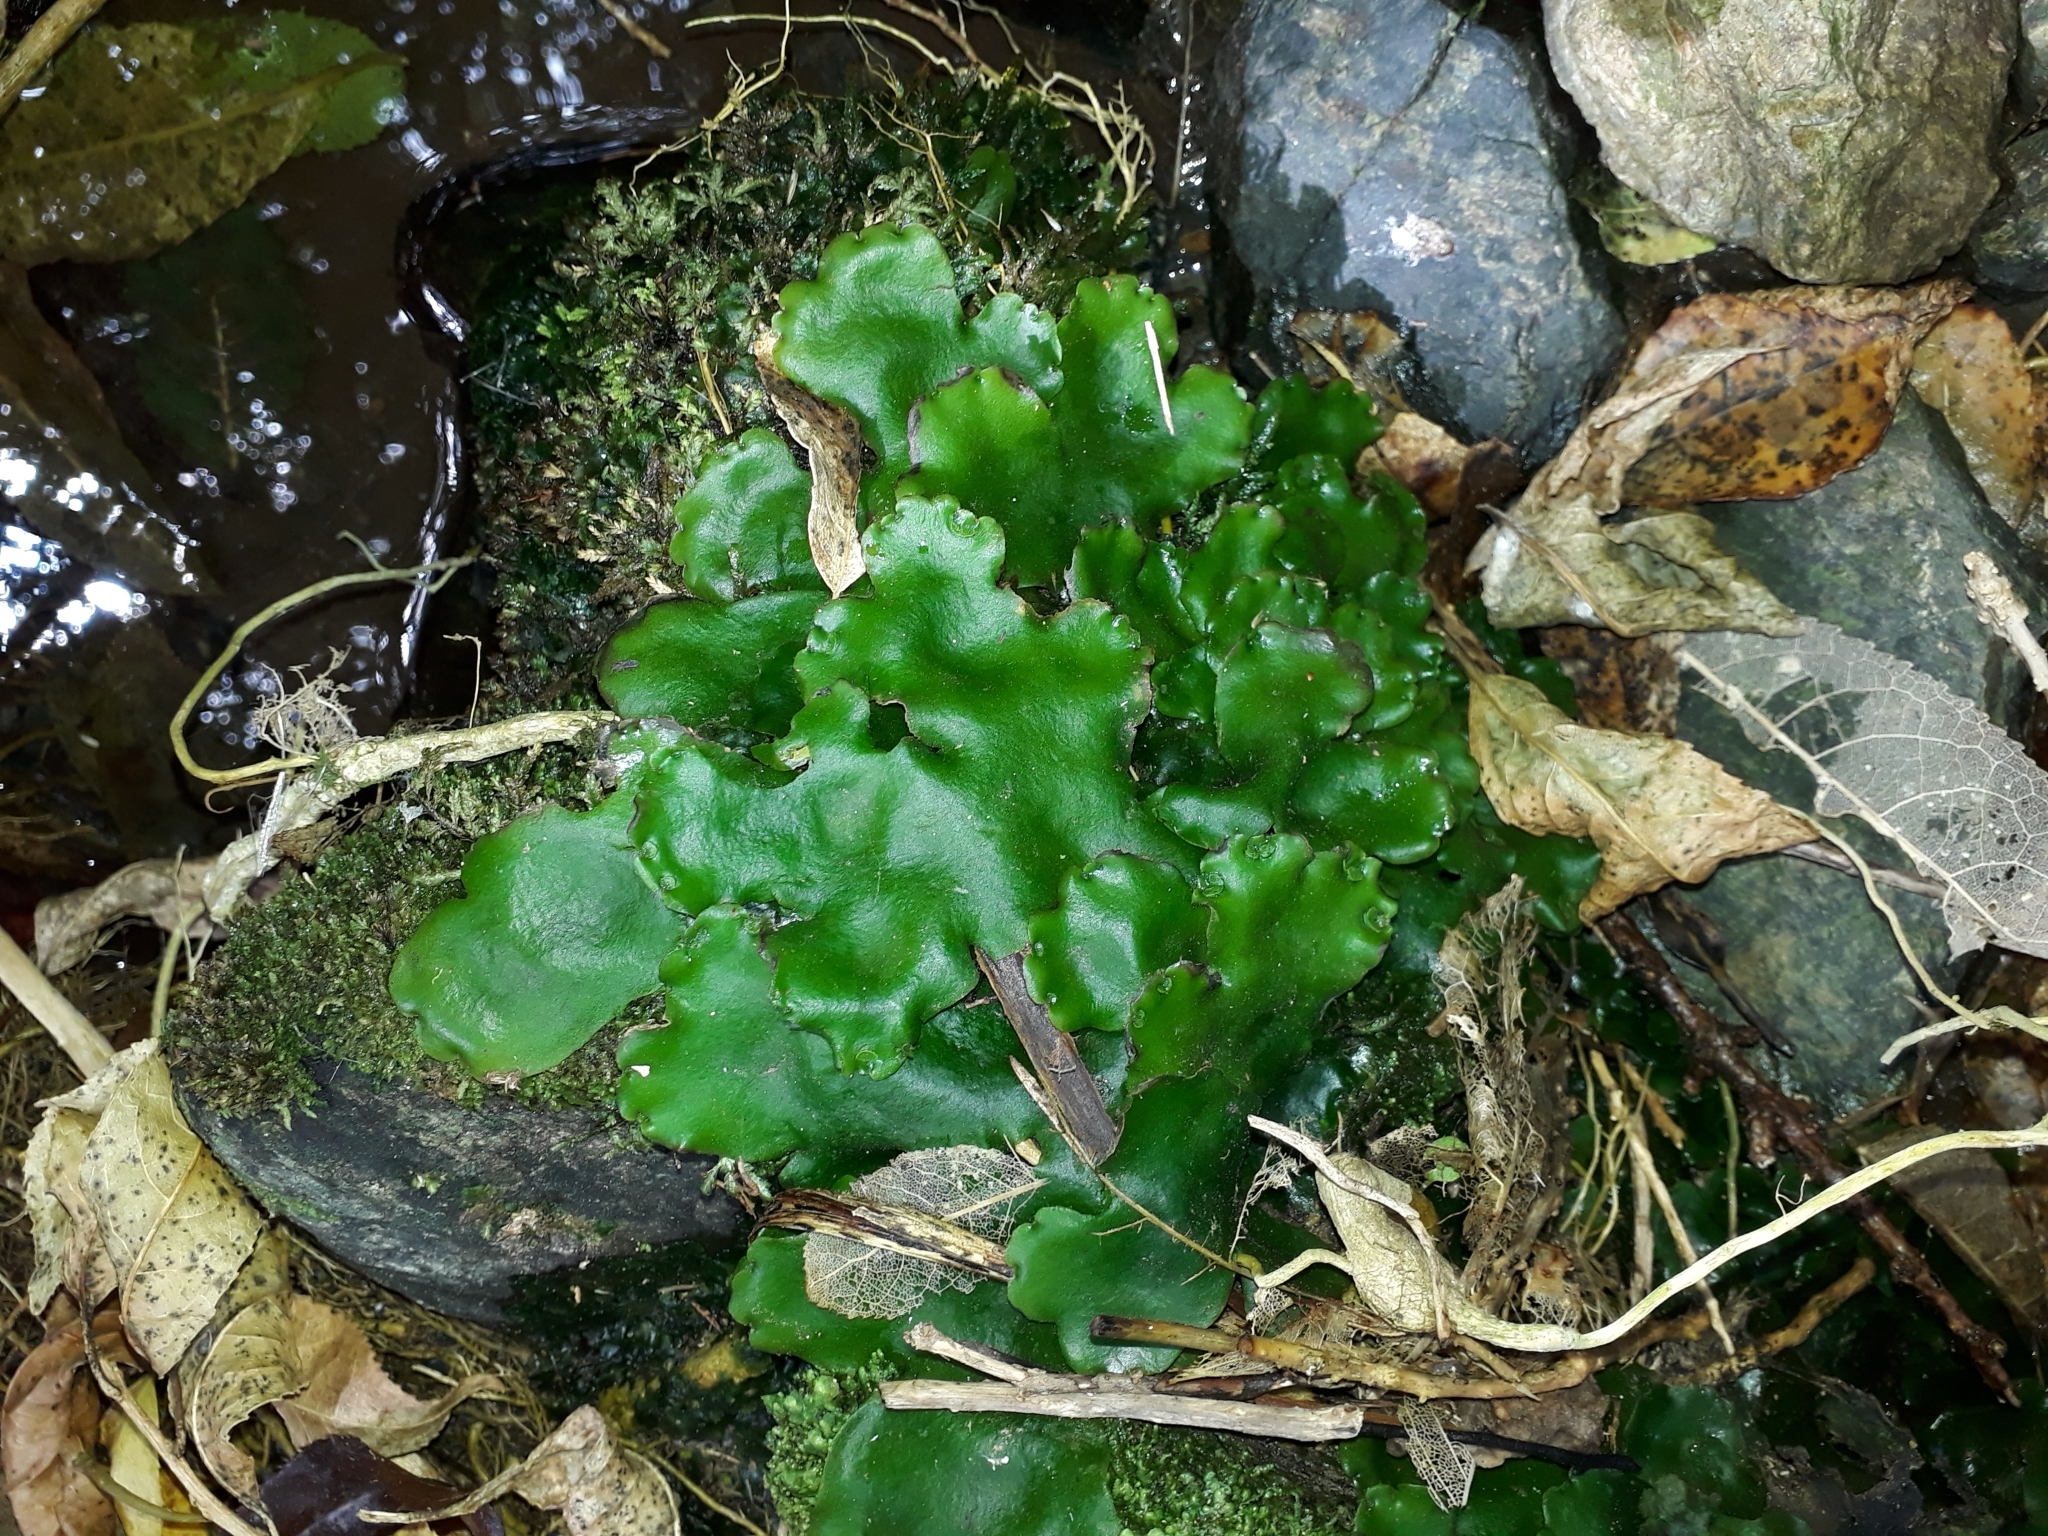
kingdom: Plantae
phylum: Marchantiophyta
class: Marchantiopsida
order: Marchantiales
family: Monocleaceae
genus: Monoclea
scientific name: Monoclea forsteri
